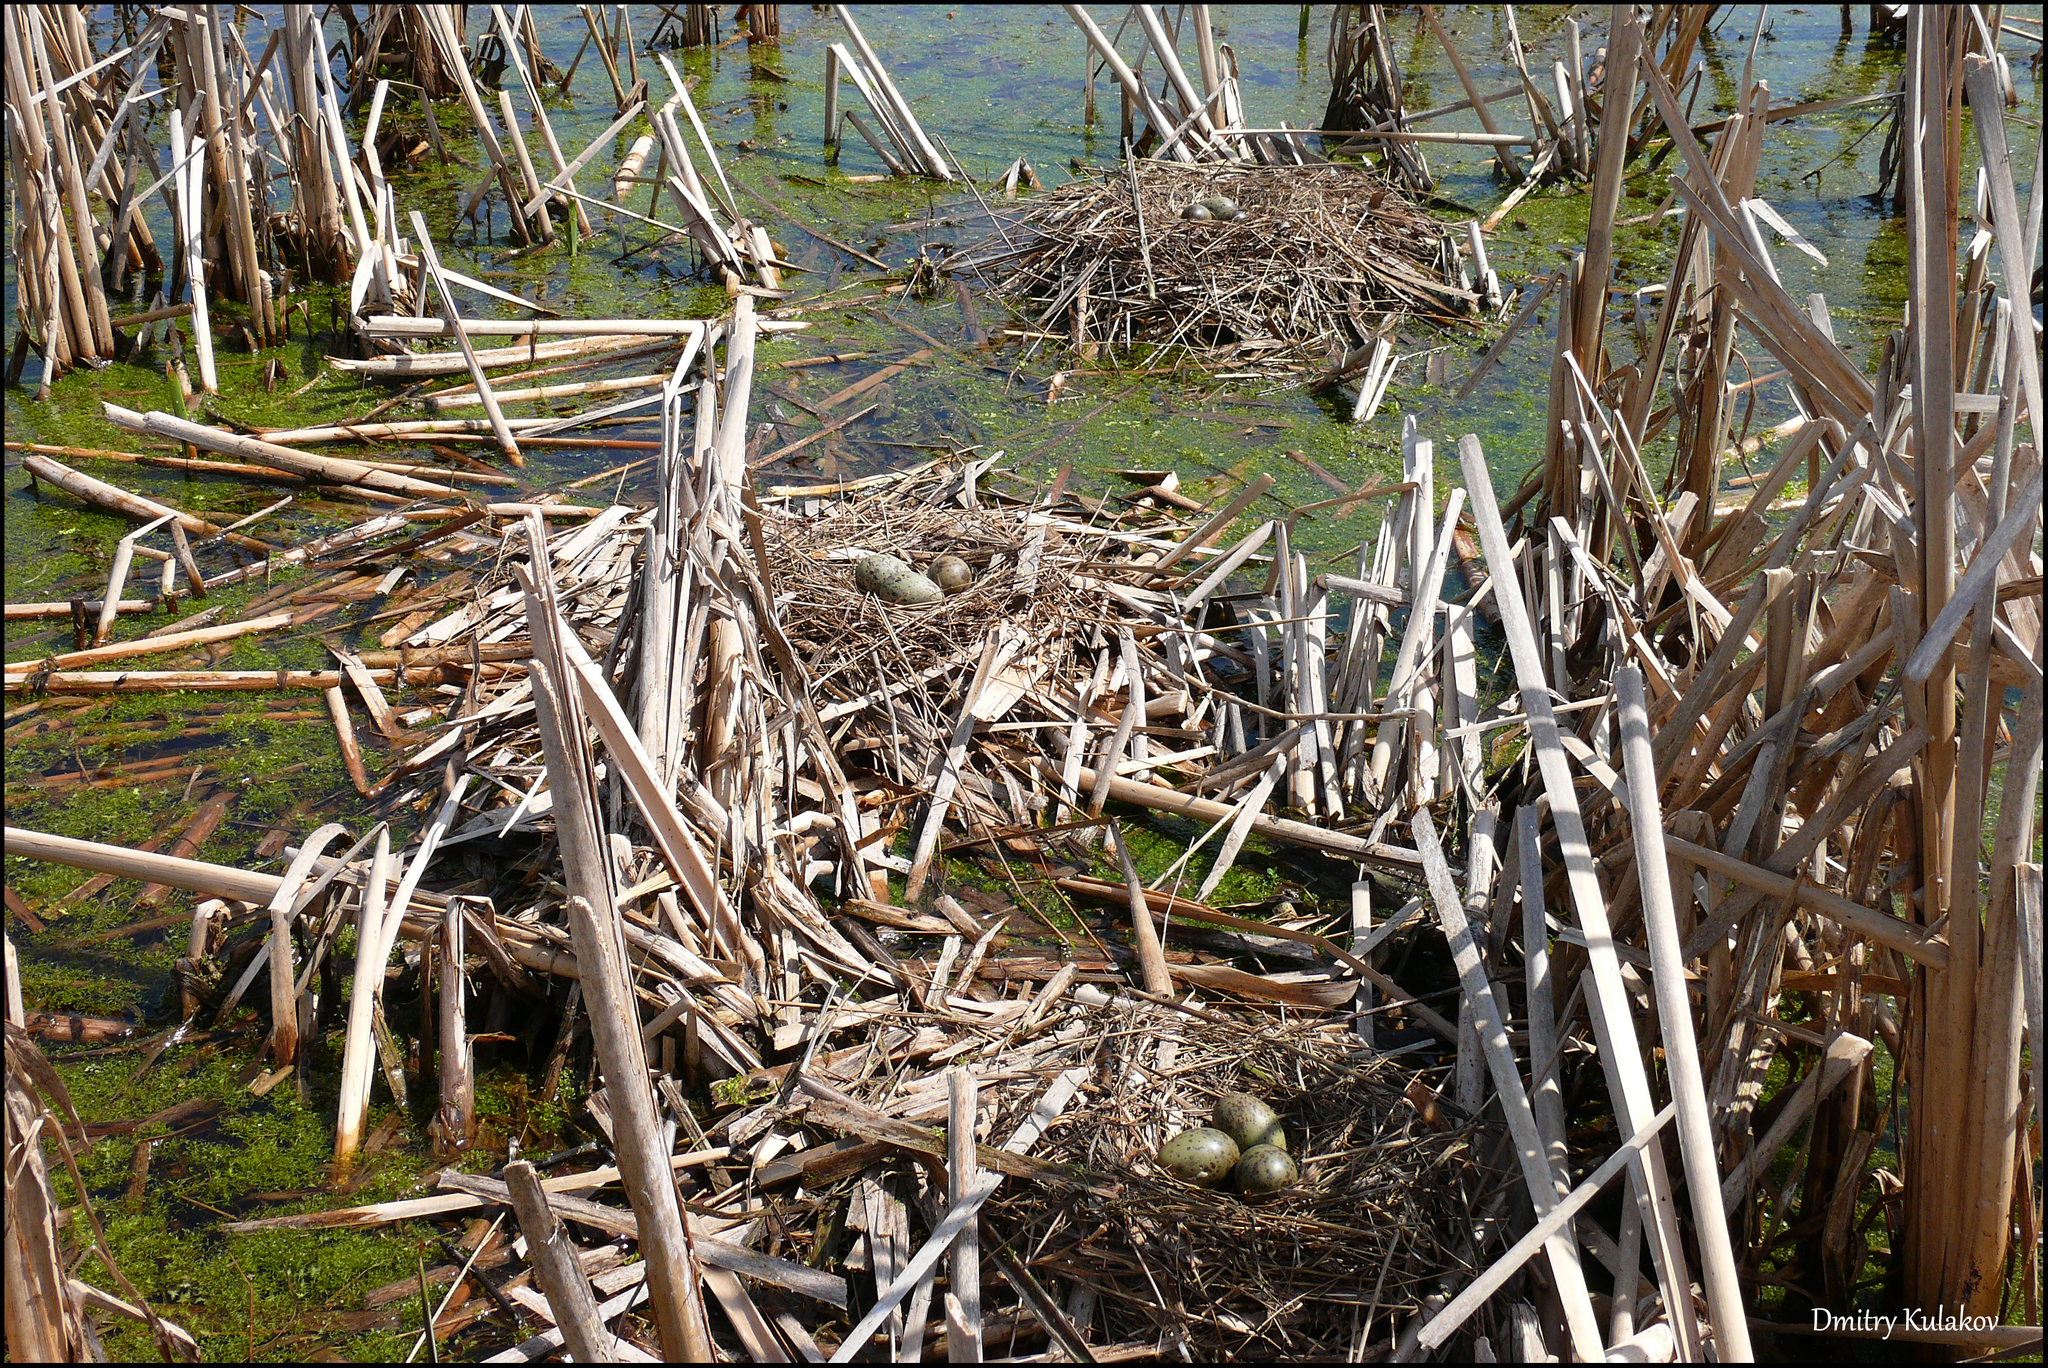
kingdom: Animalia
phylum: Chordata
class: Aves
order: Charadriiformes
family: Laridae
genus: Chroicocephalus
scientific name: Chroicocephalus ridibundus
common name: Black-headed gull
